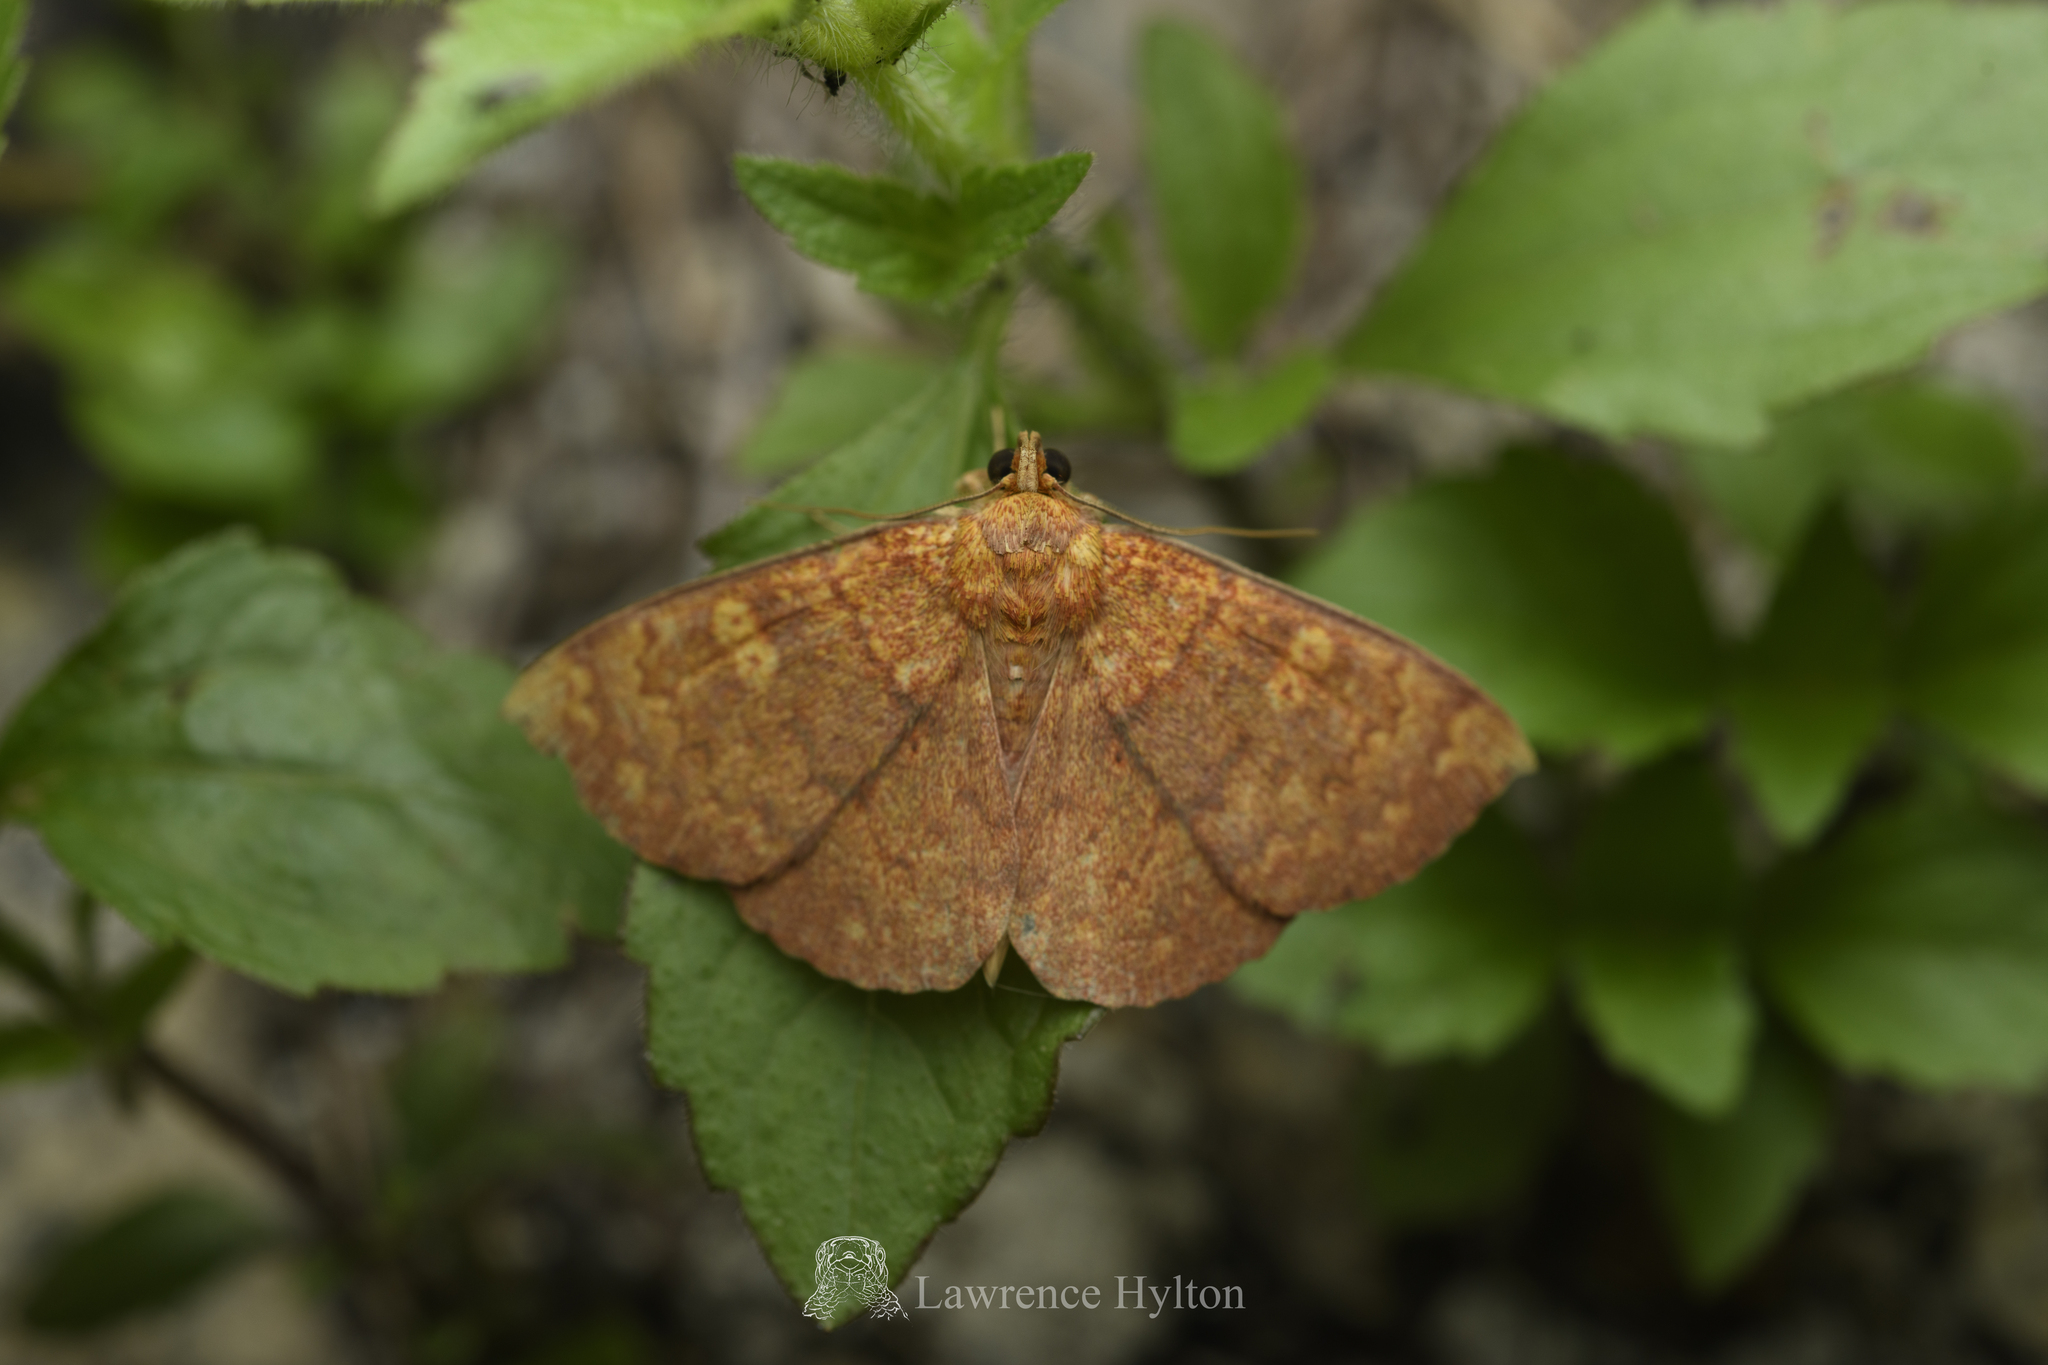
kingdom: Animalia
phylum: Arthropoda
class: Insecta
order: Lepidoptera
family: Erebidae
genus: Singara
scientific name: Singara diversalis
